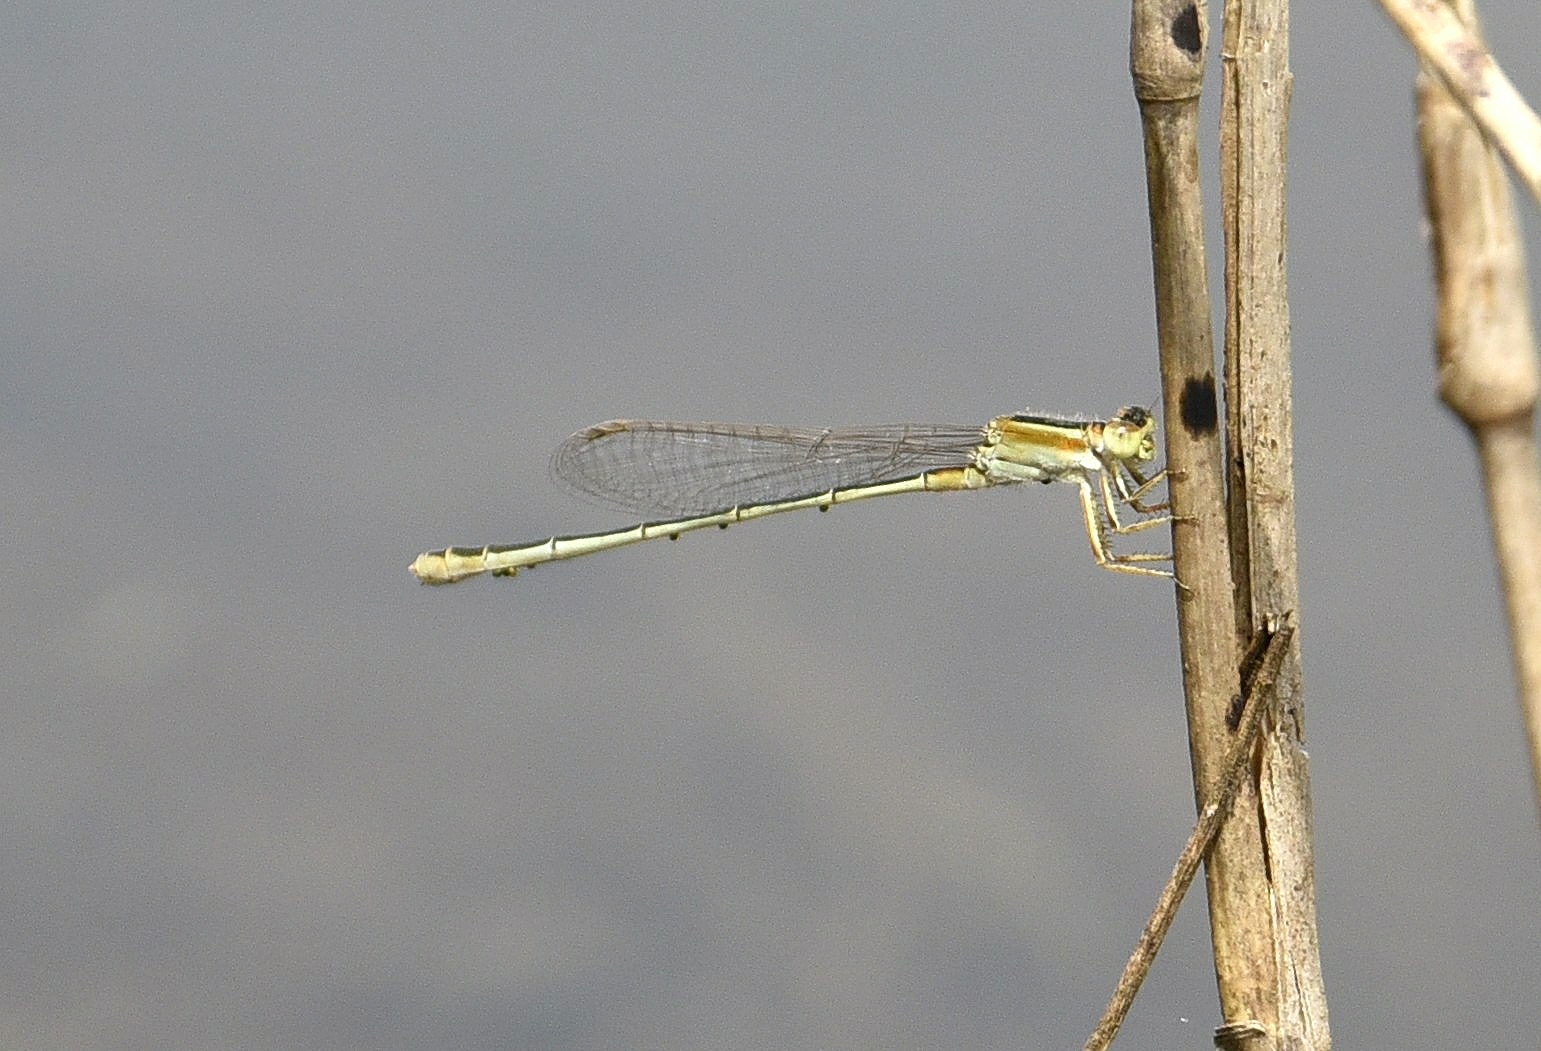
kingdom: Animalia
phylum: Arthropoda
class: Insecta
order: Odonata
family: Coenagrionidae
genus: Ischnura
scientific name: Ischnura senegalensis
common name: Tropical bluetail
